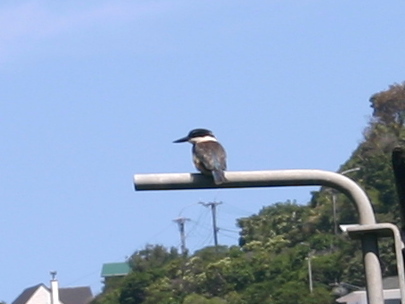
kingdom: Animalia
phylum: Chordata
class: Aves
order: Coraciiformes
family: Alcedinidae
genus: Todiramphus
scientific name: Todiramphus sanctus
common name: Sacred kingfisher
